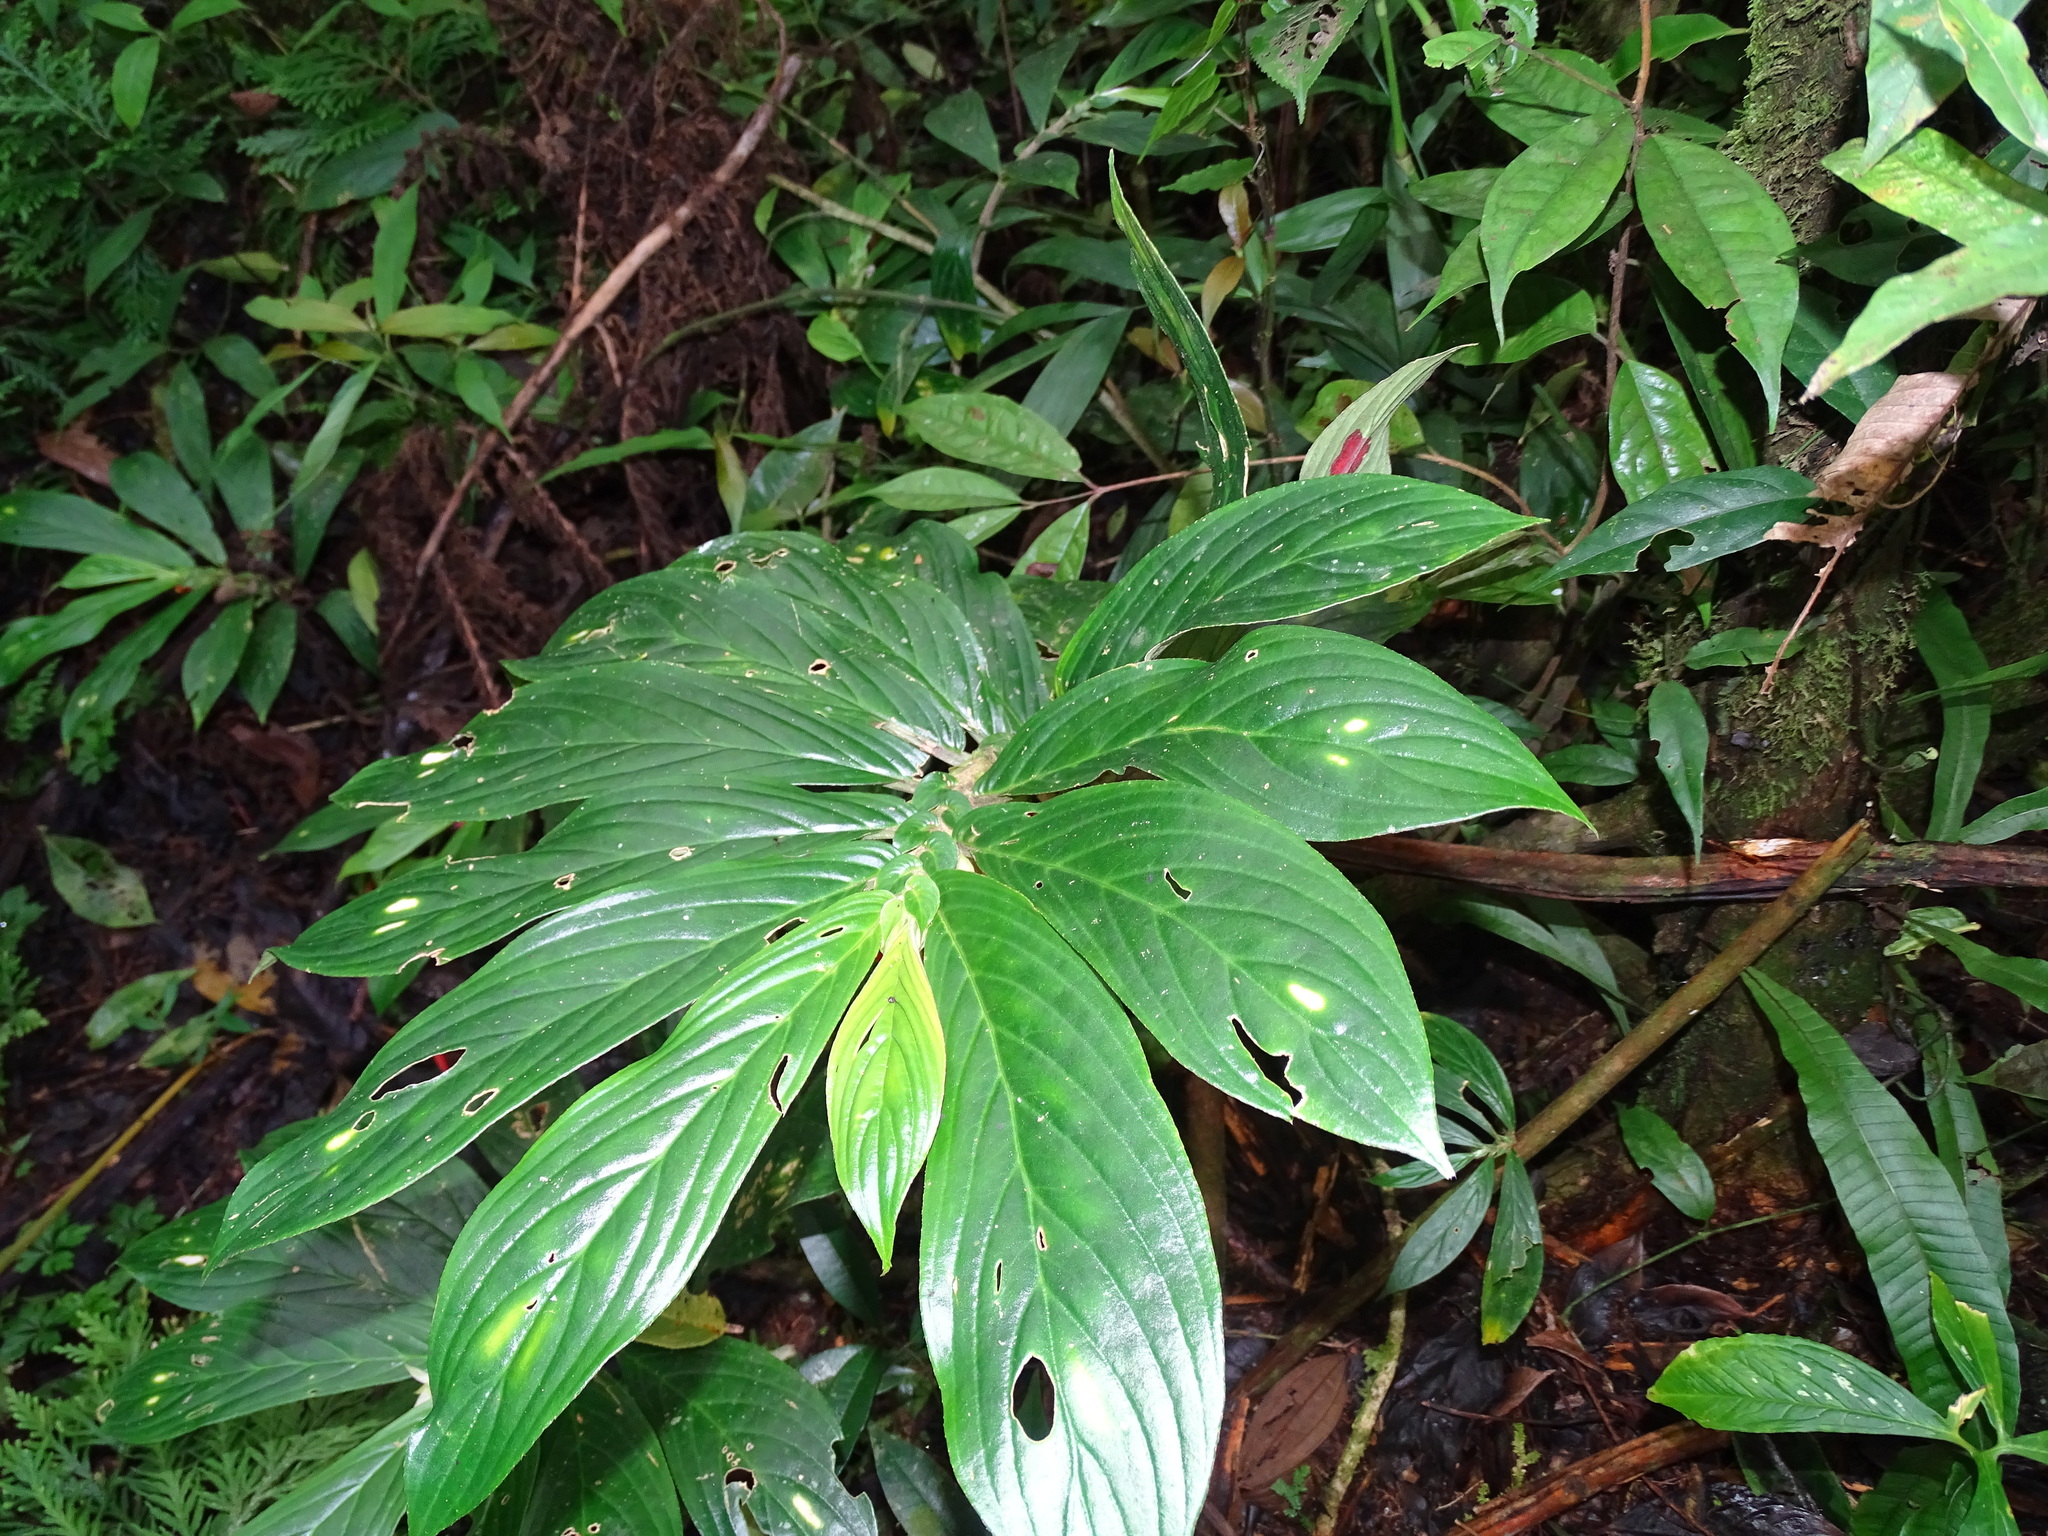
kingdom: Plantae
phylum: Tracheophyta
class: Magnoliopsida
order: Lamiales
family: Gesneriaceae
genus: Columnea
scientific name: Columnea dimidiata
